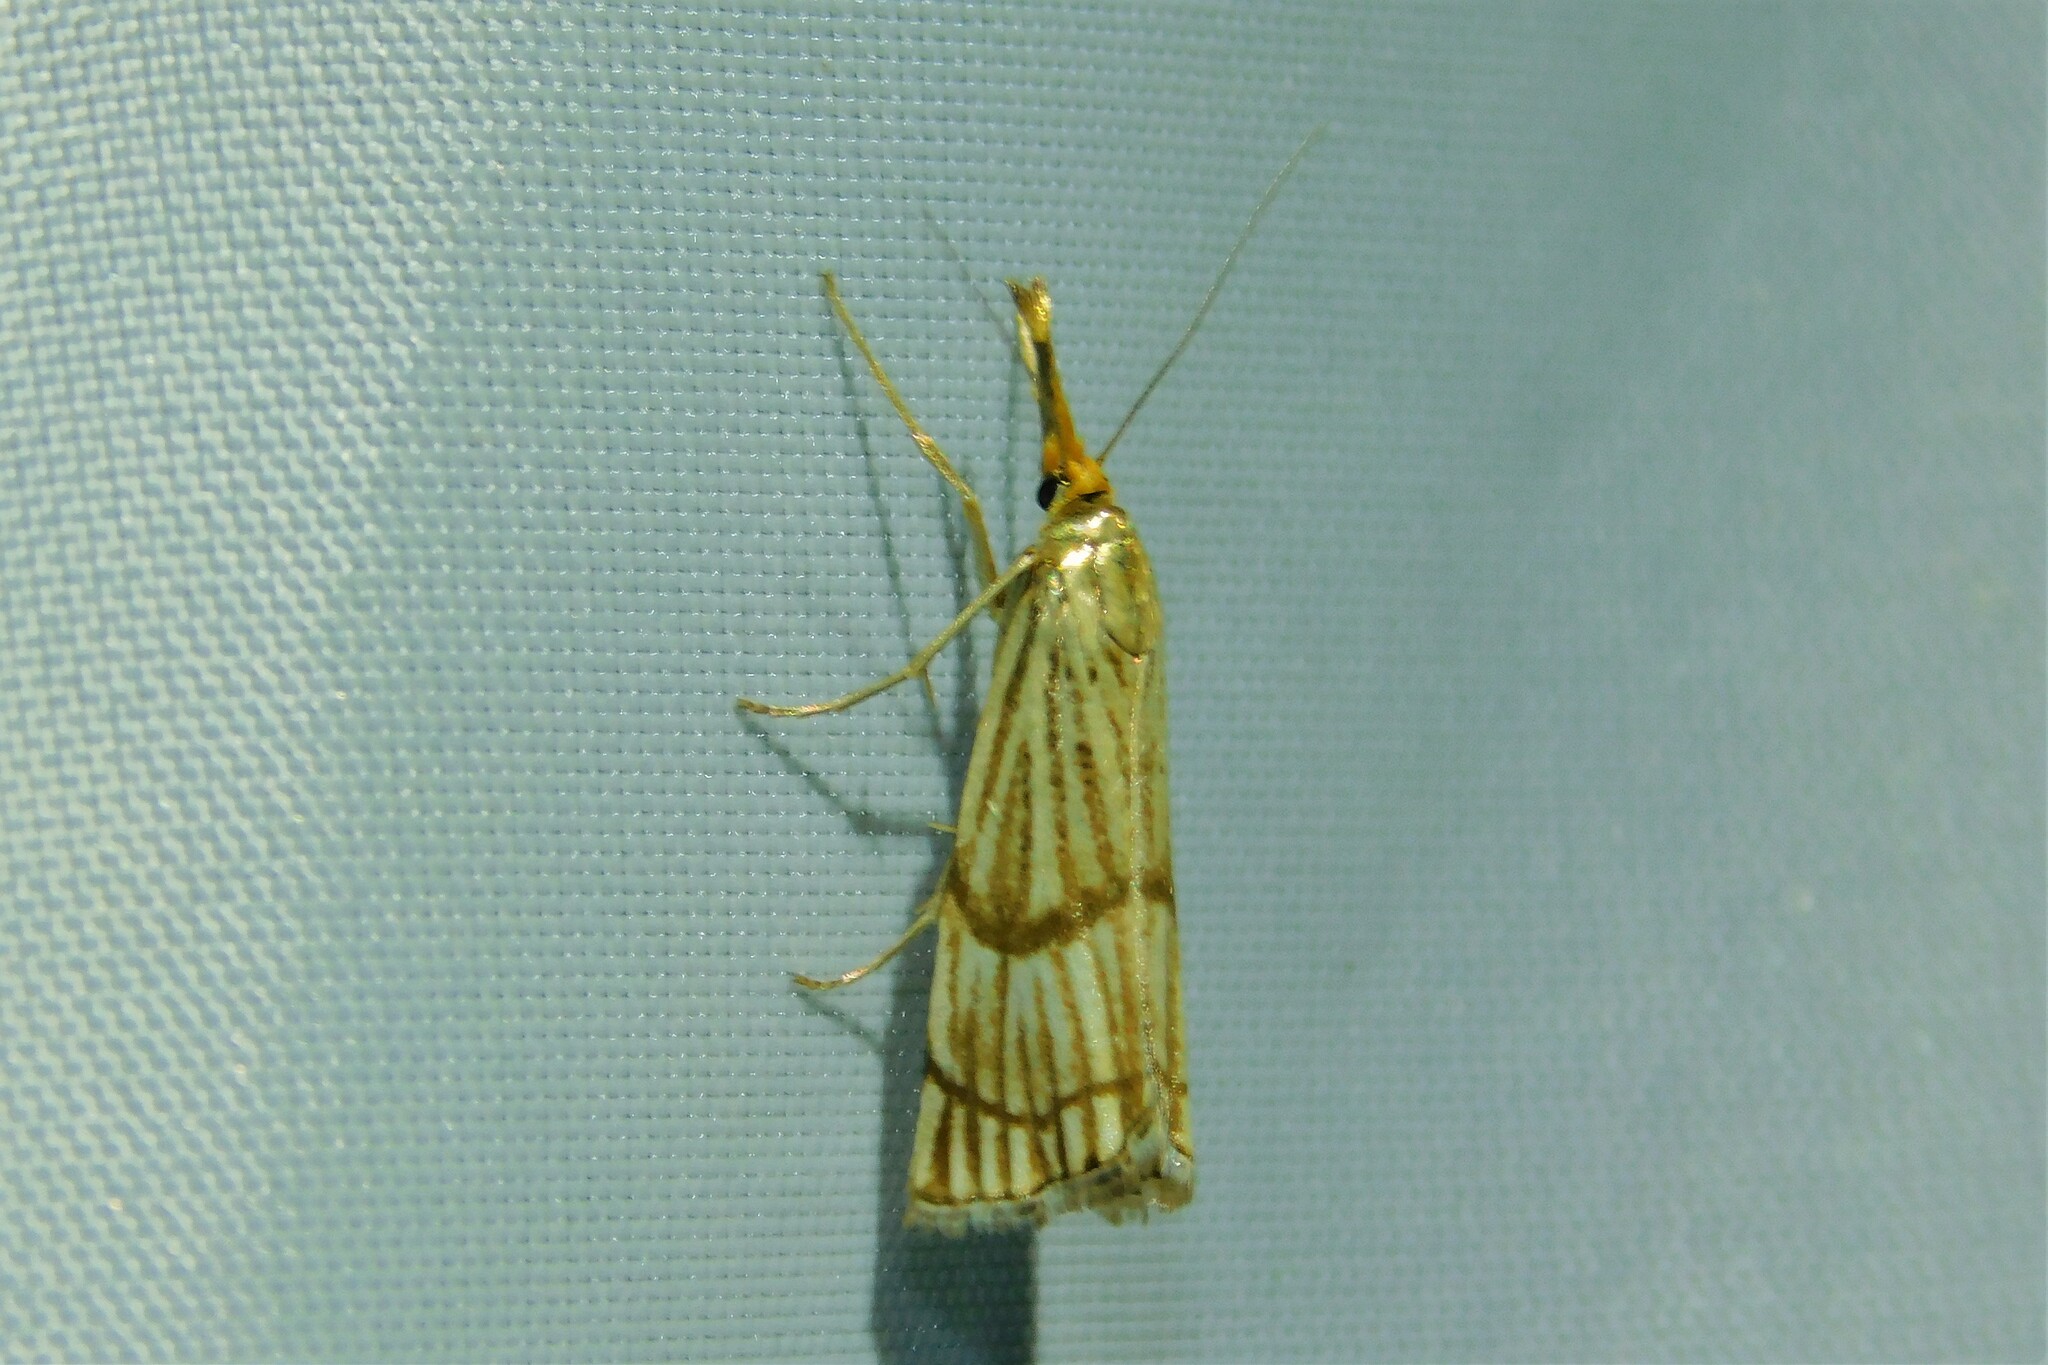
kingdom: Animalia
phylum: Arthropoda
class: Insecta
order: Lepidoptera
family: Crambidae
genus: Chrysocrambus
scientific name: Chrysocrambus linetella
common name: Orange-bar grass-veneer
